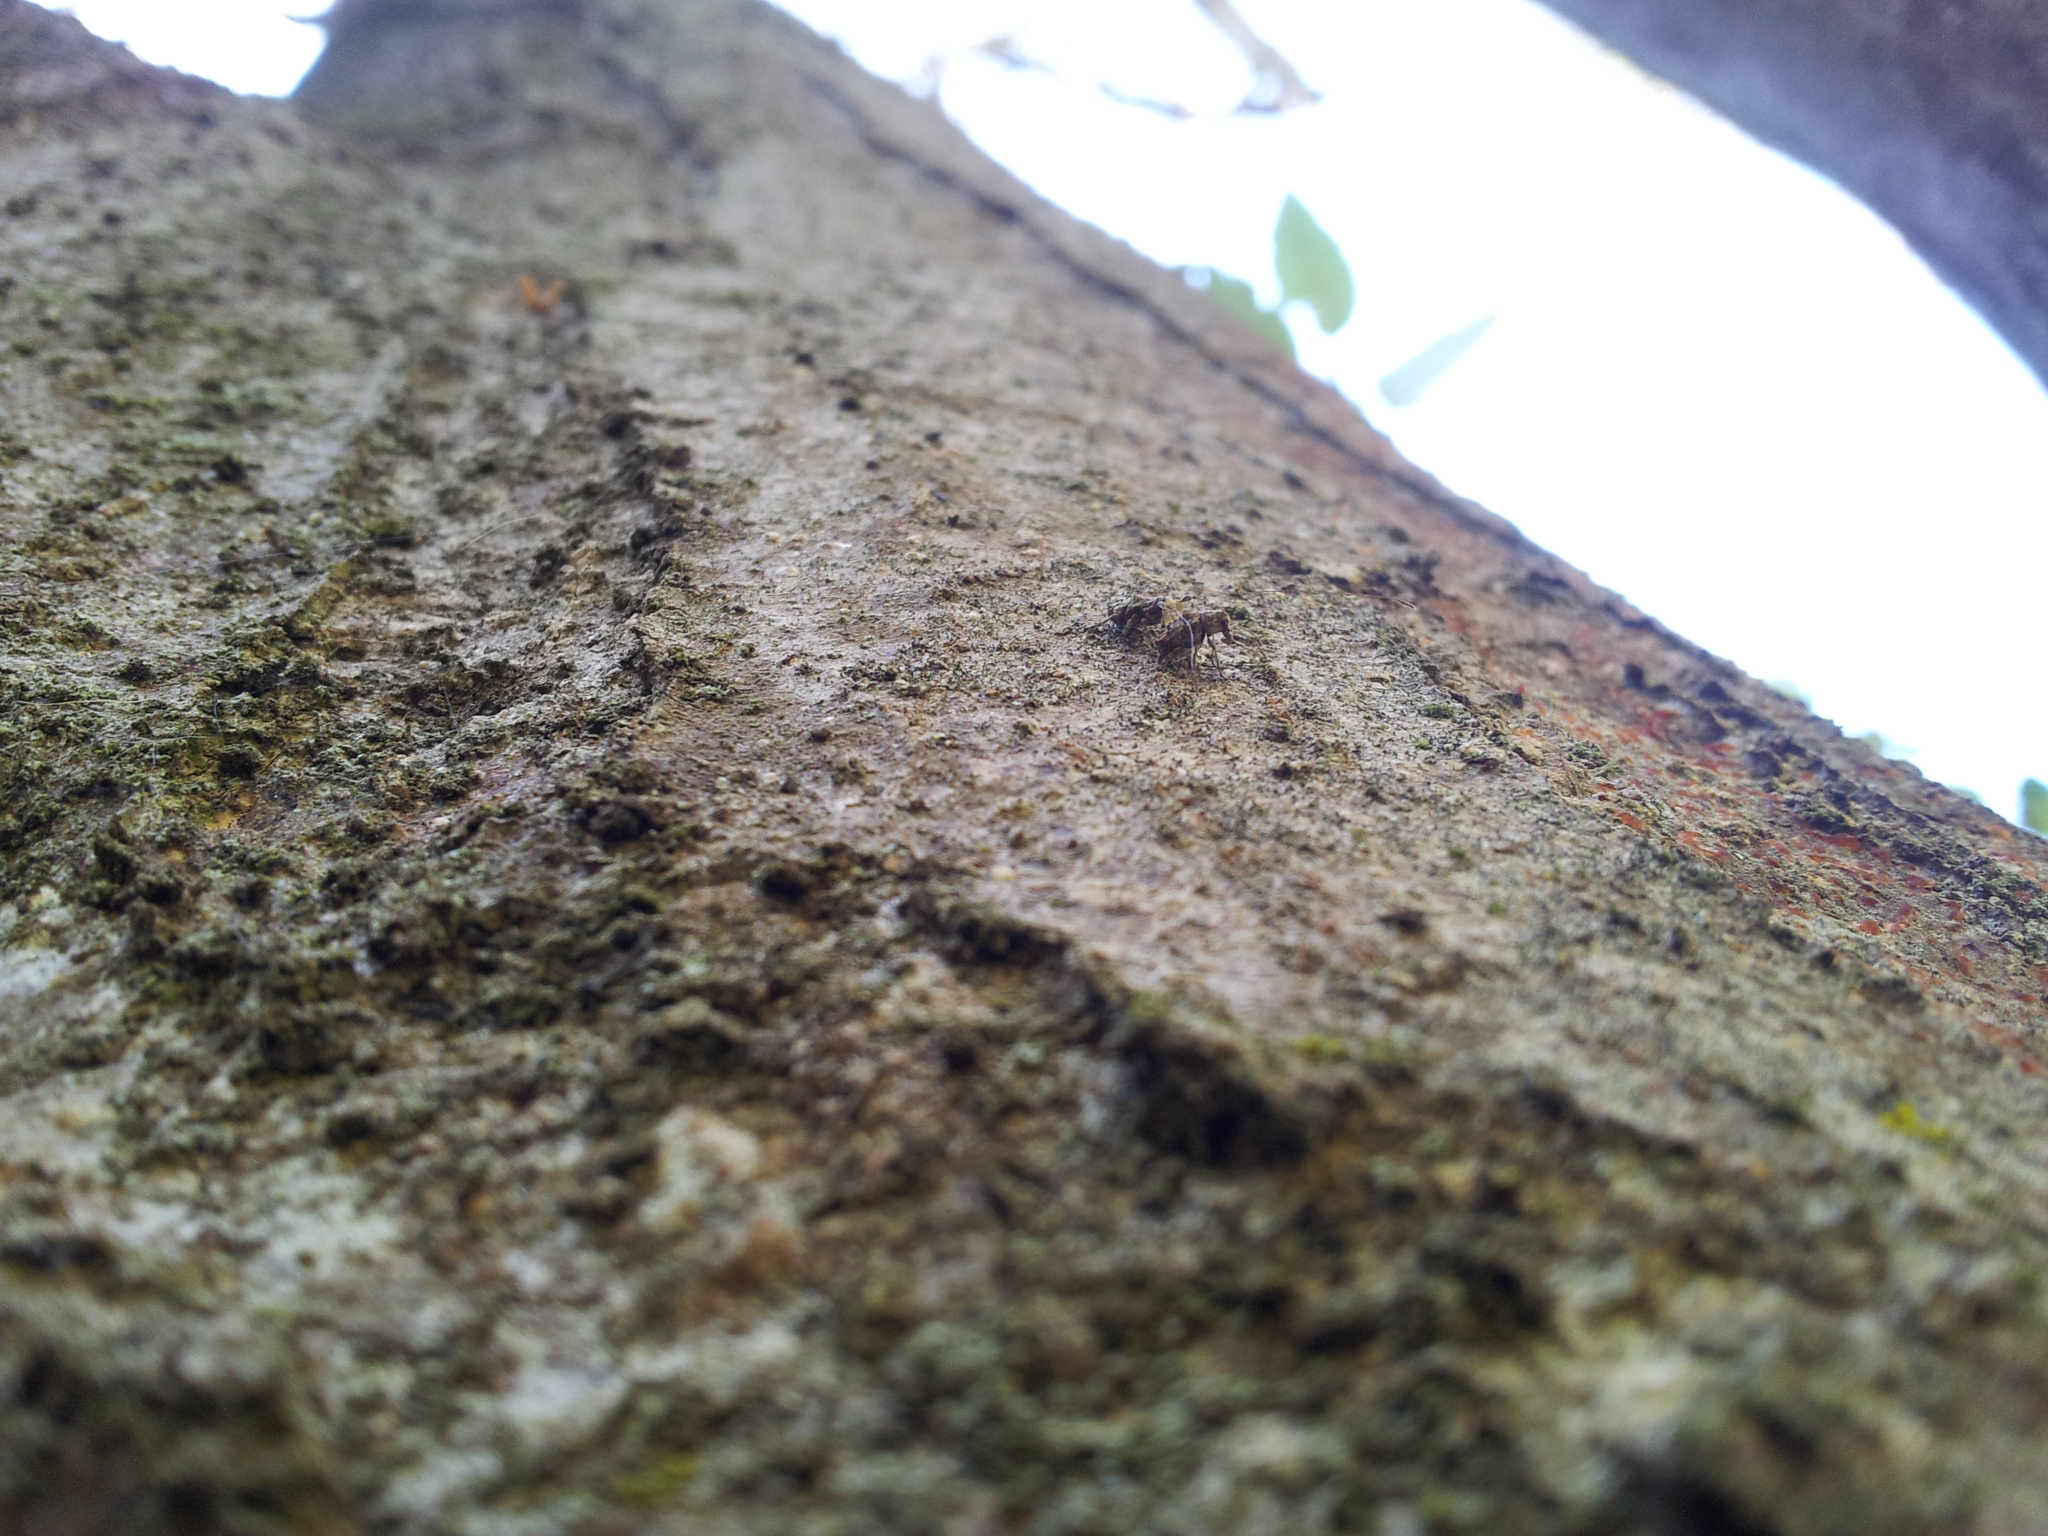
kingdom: Animalia
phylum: Arthropoda
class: Insecta
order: Coleoptera
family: Anthribidae
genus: Hoherius
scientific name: Hoherius
